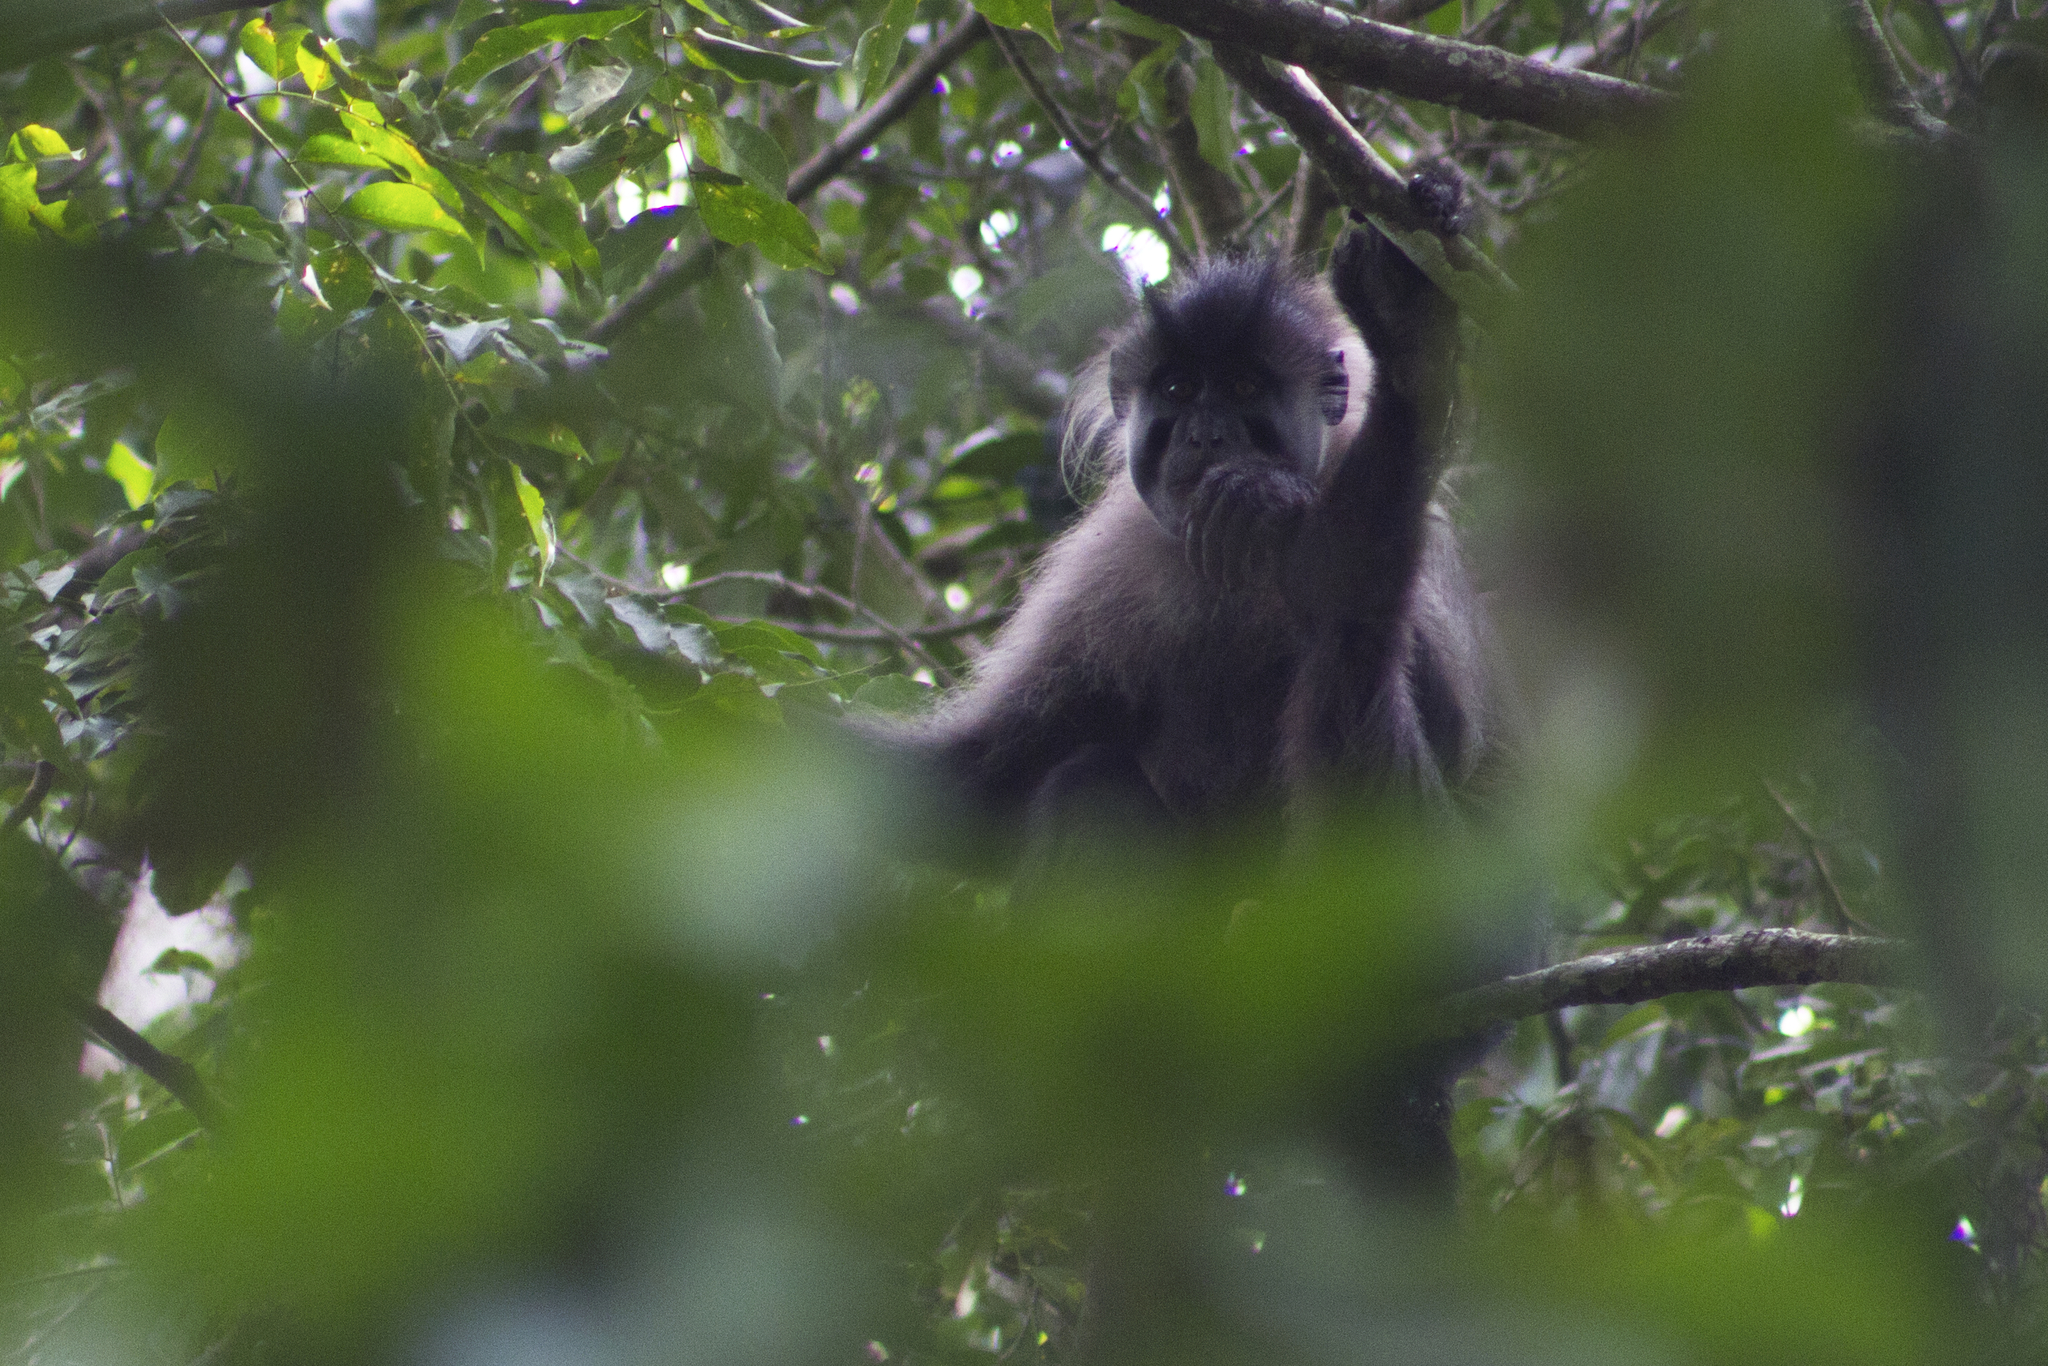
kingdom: Animalia
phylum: Chordata
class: Mammalia
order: Primates
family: Cercopithecidae
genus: Lophocebus
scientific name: Lophocebus albigena
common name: Gray-cheeked mangabey
